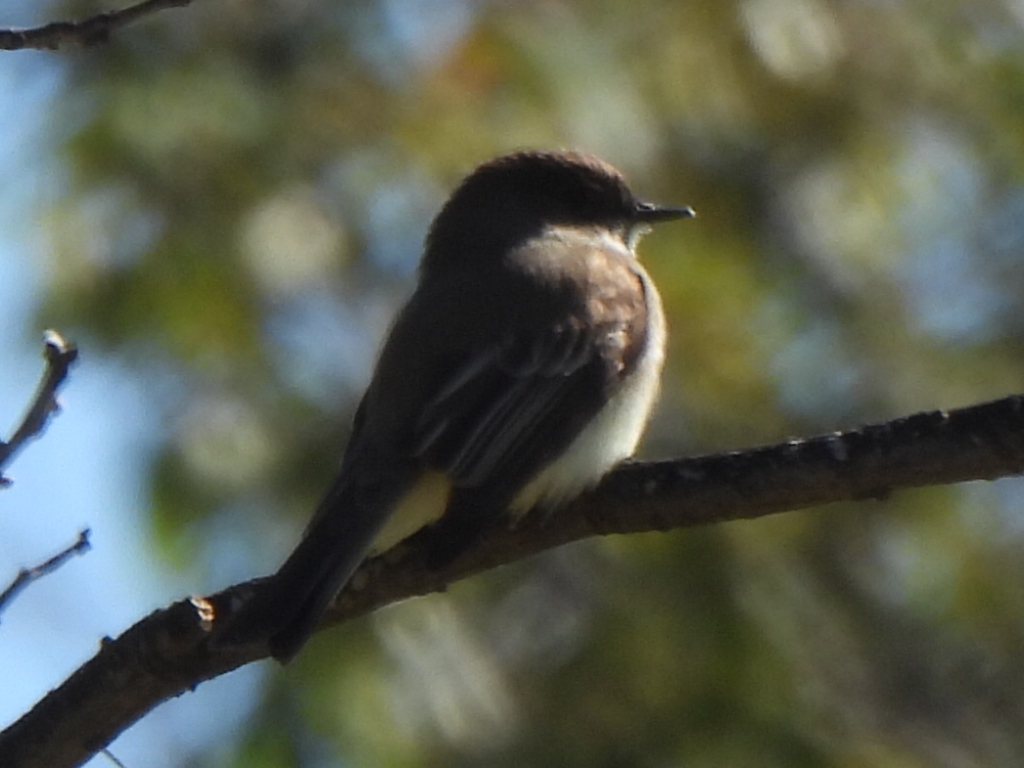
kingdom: Animalia
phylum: Chordata
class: Aves
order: Passeriformes
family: Tyrannidae
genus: Sayornis
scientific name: Sayornis phoebe
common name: Eastern phoebe
